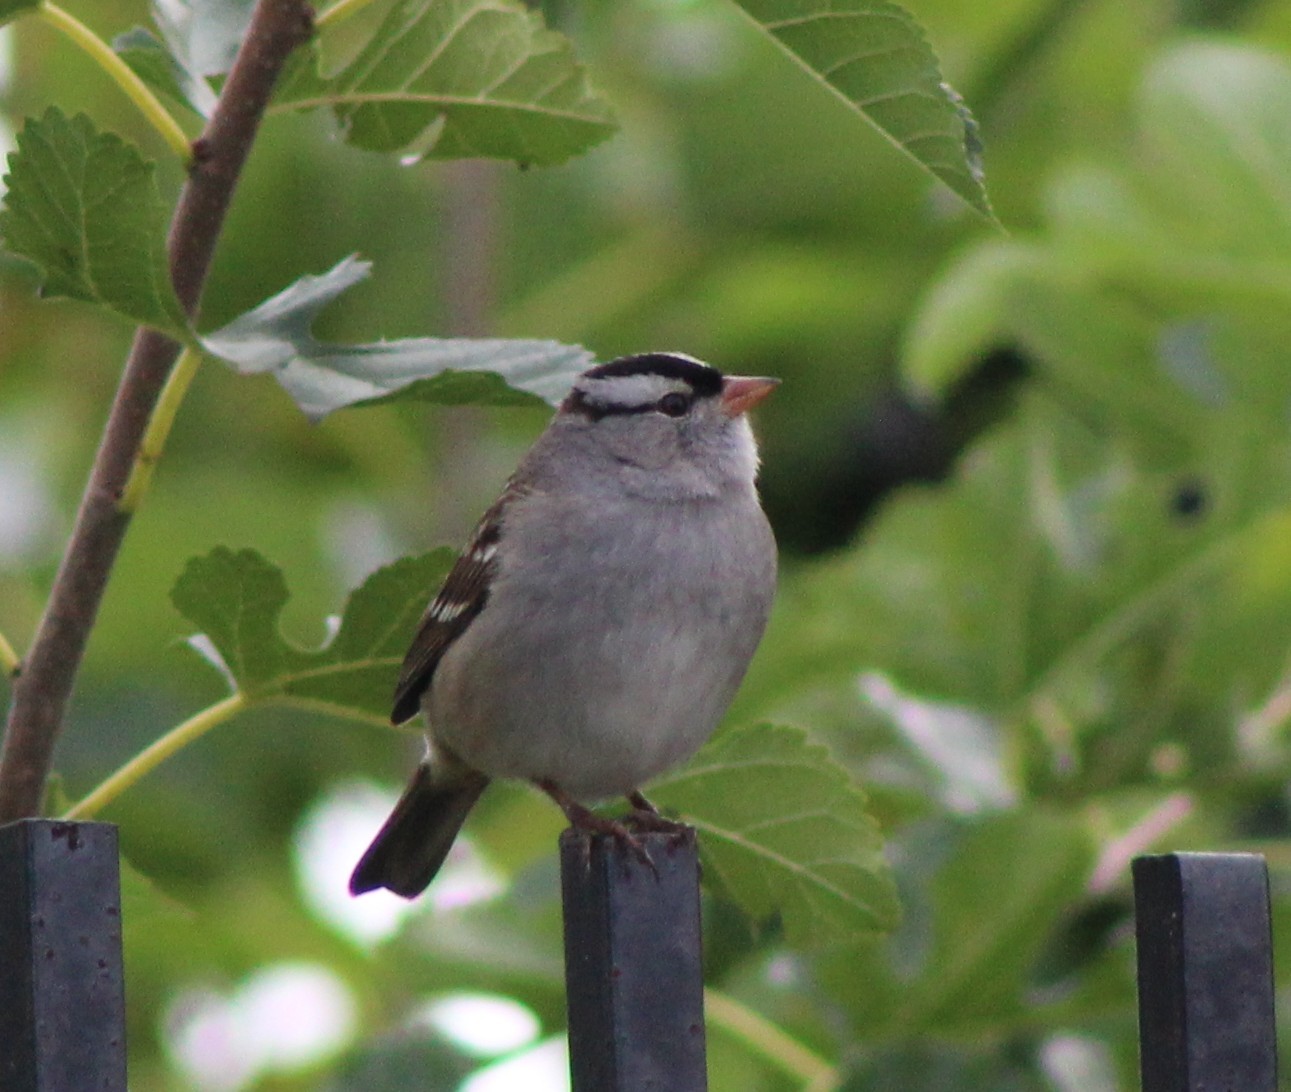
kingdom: Animalia
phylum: Chordata
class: Aves
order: Passeriformes
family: Passerellidae
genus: Zonotrichia
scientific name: Zonotrichia leucophrys
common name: White-crowned sparrow
